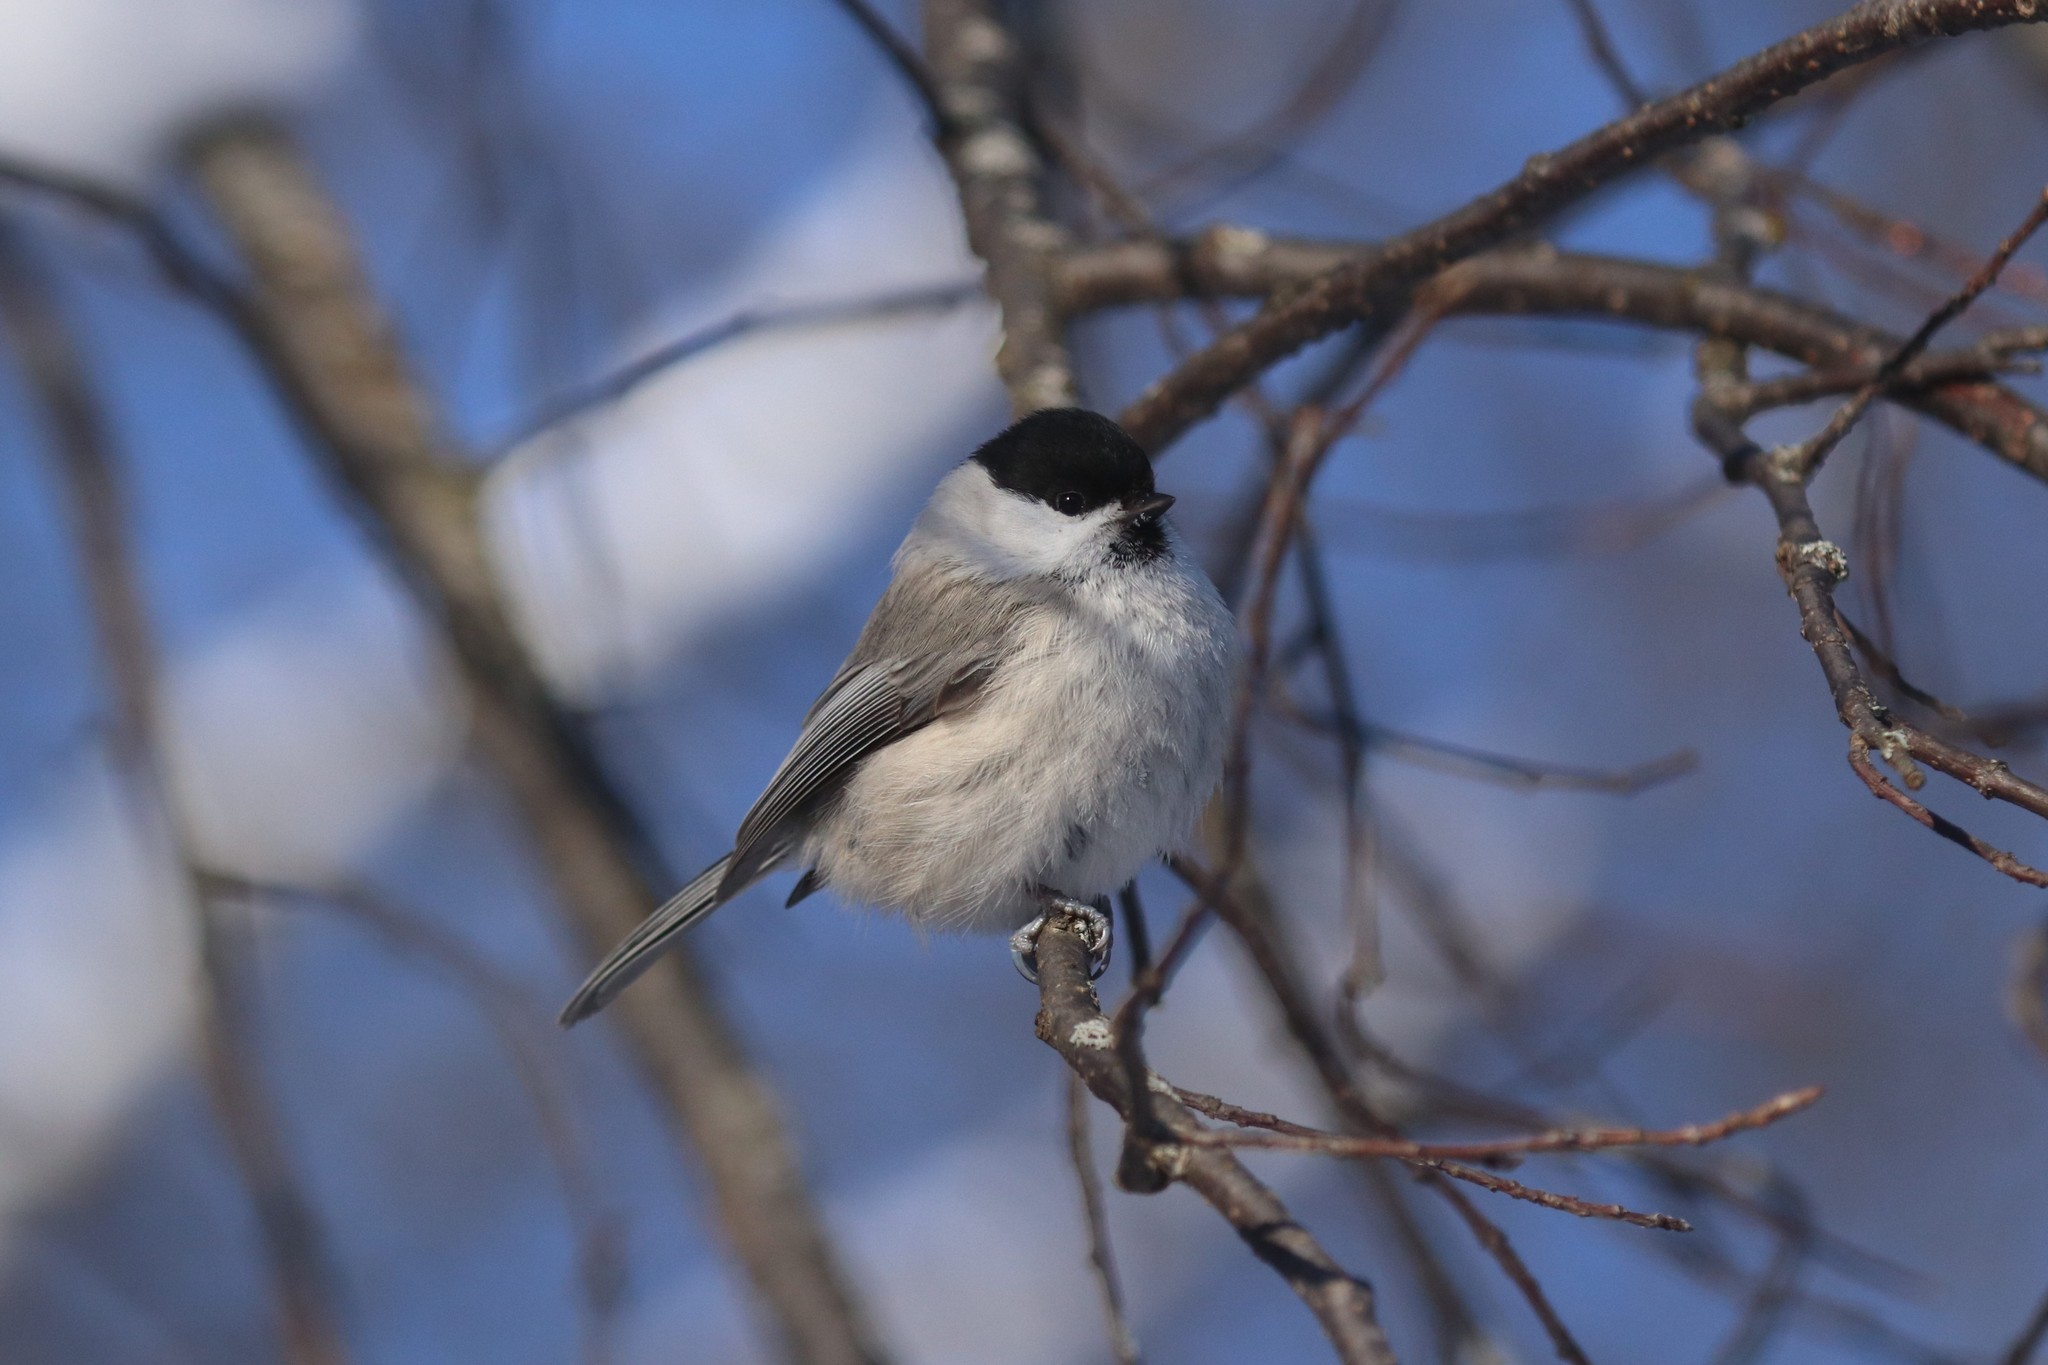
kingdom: Animalia
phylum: Chordata
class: Aves
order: Passeriformes
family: Paridae
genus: Poecile
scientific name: Poecile montanus
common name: Willow tit
